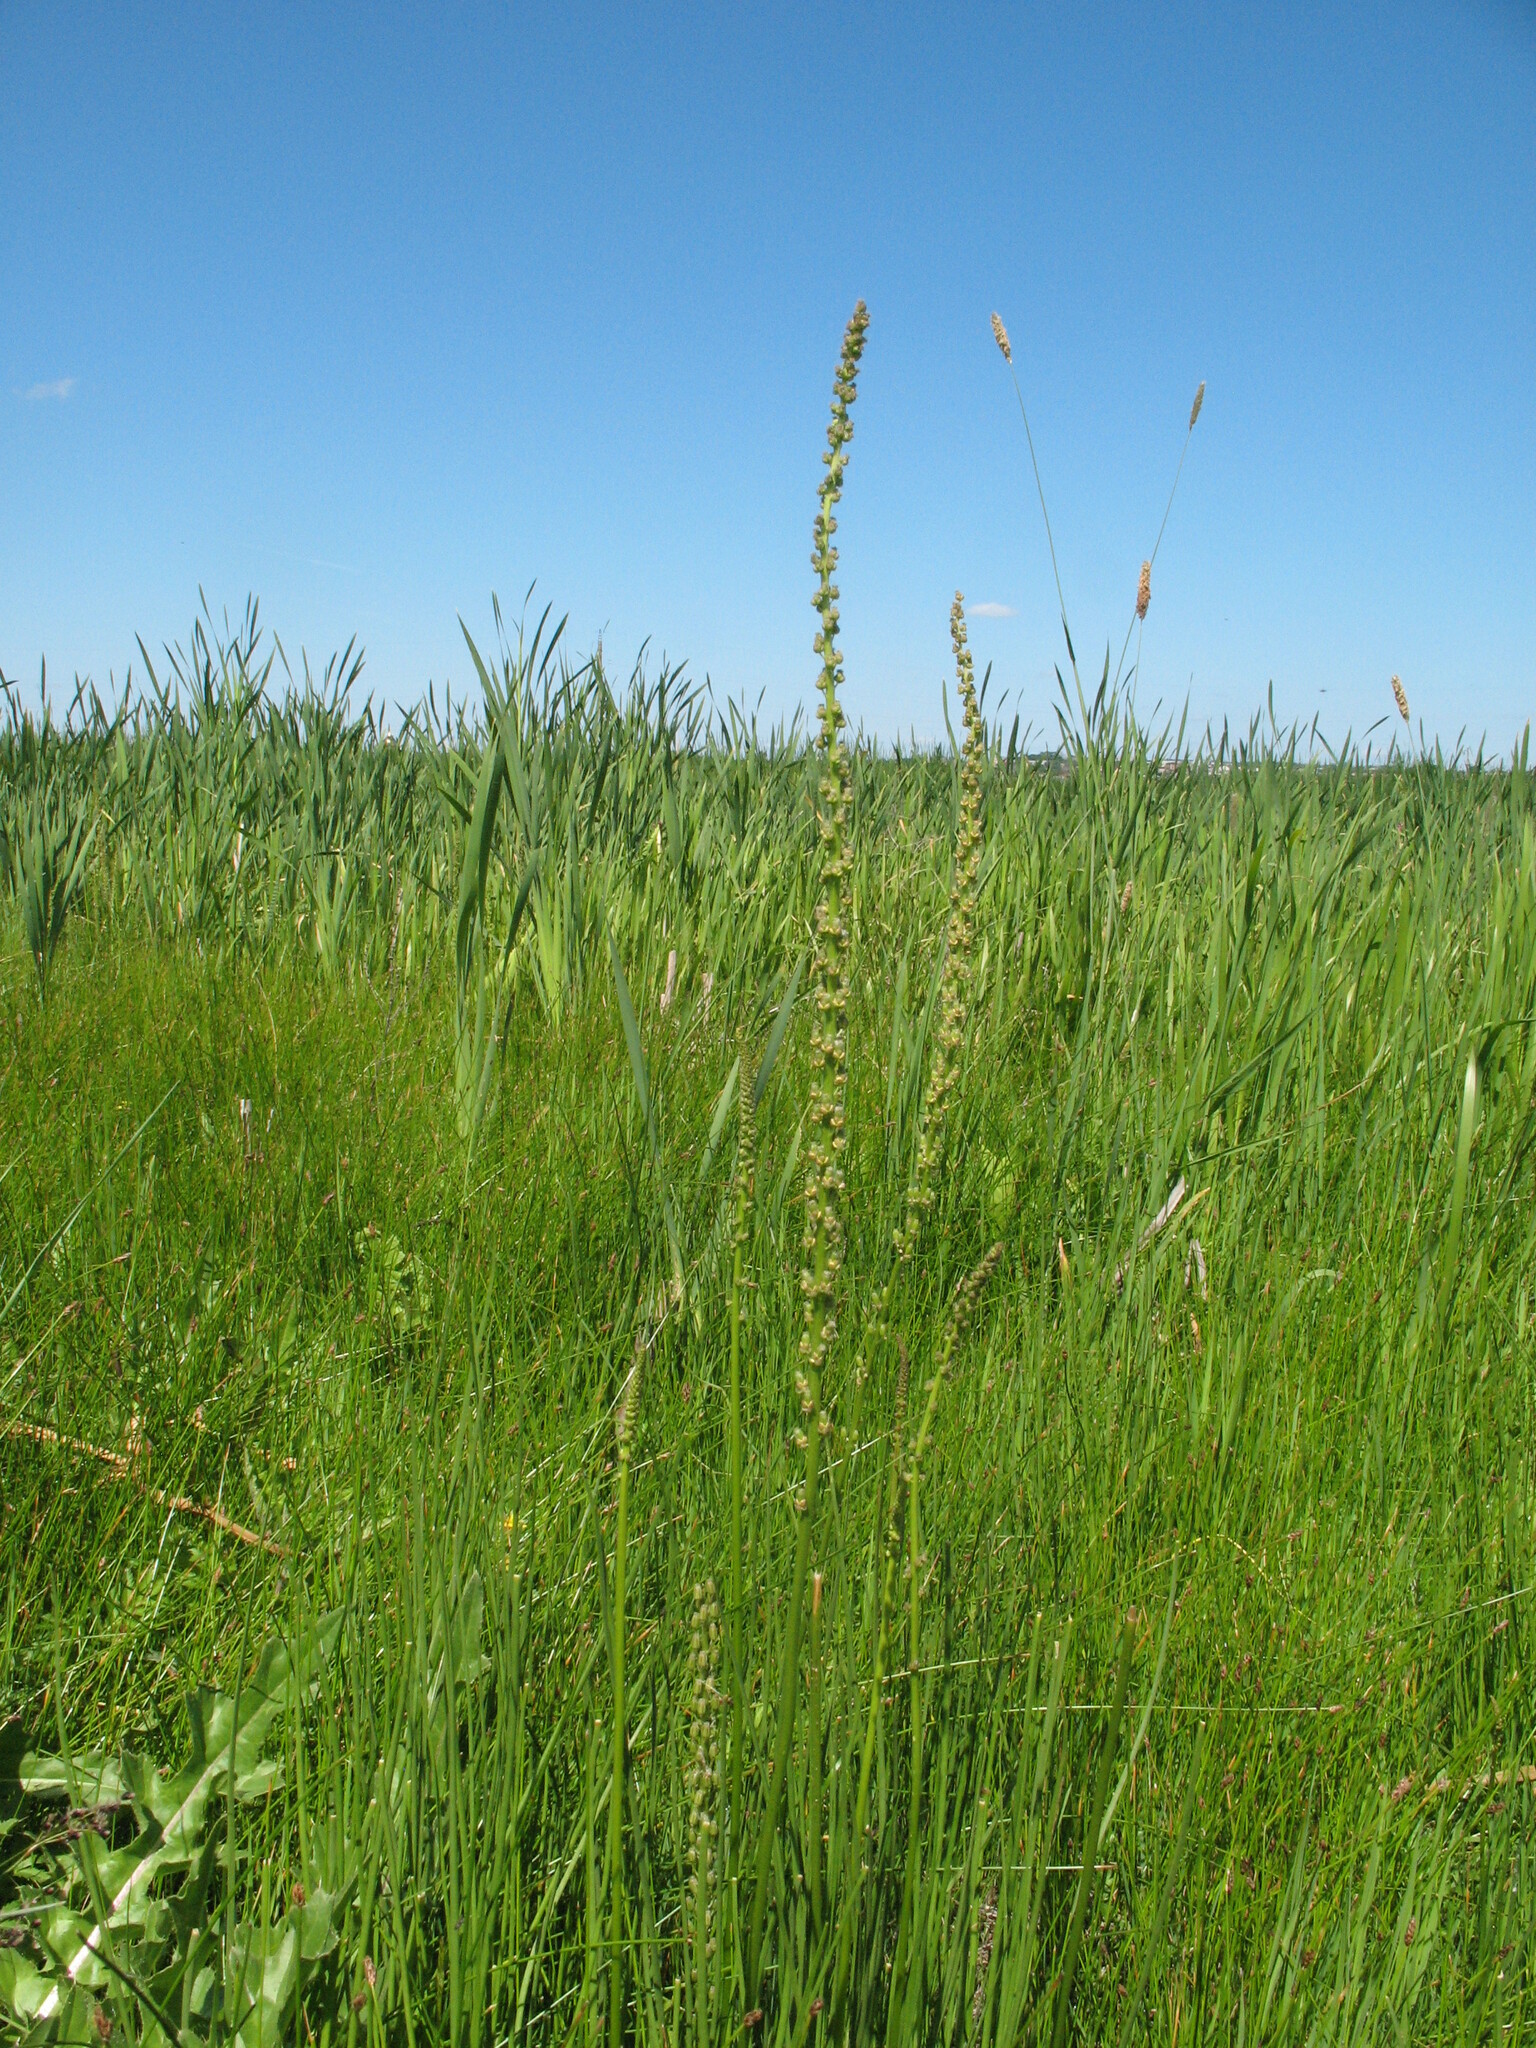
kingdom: Plantae
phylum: Tracheophyta
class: Liliopsida
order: Alismatales
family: Juncaginaceae
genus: Triglochin
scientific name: Triglochin maritima
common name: Sea arrowgrass
